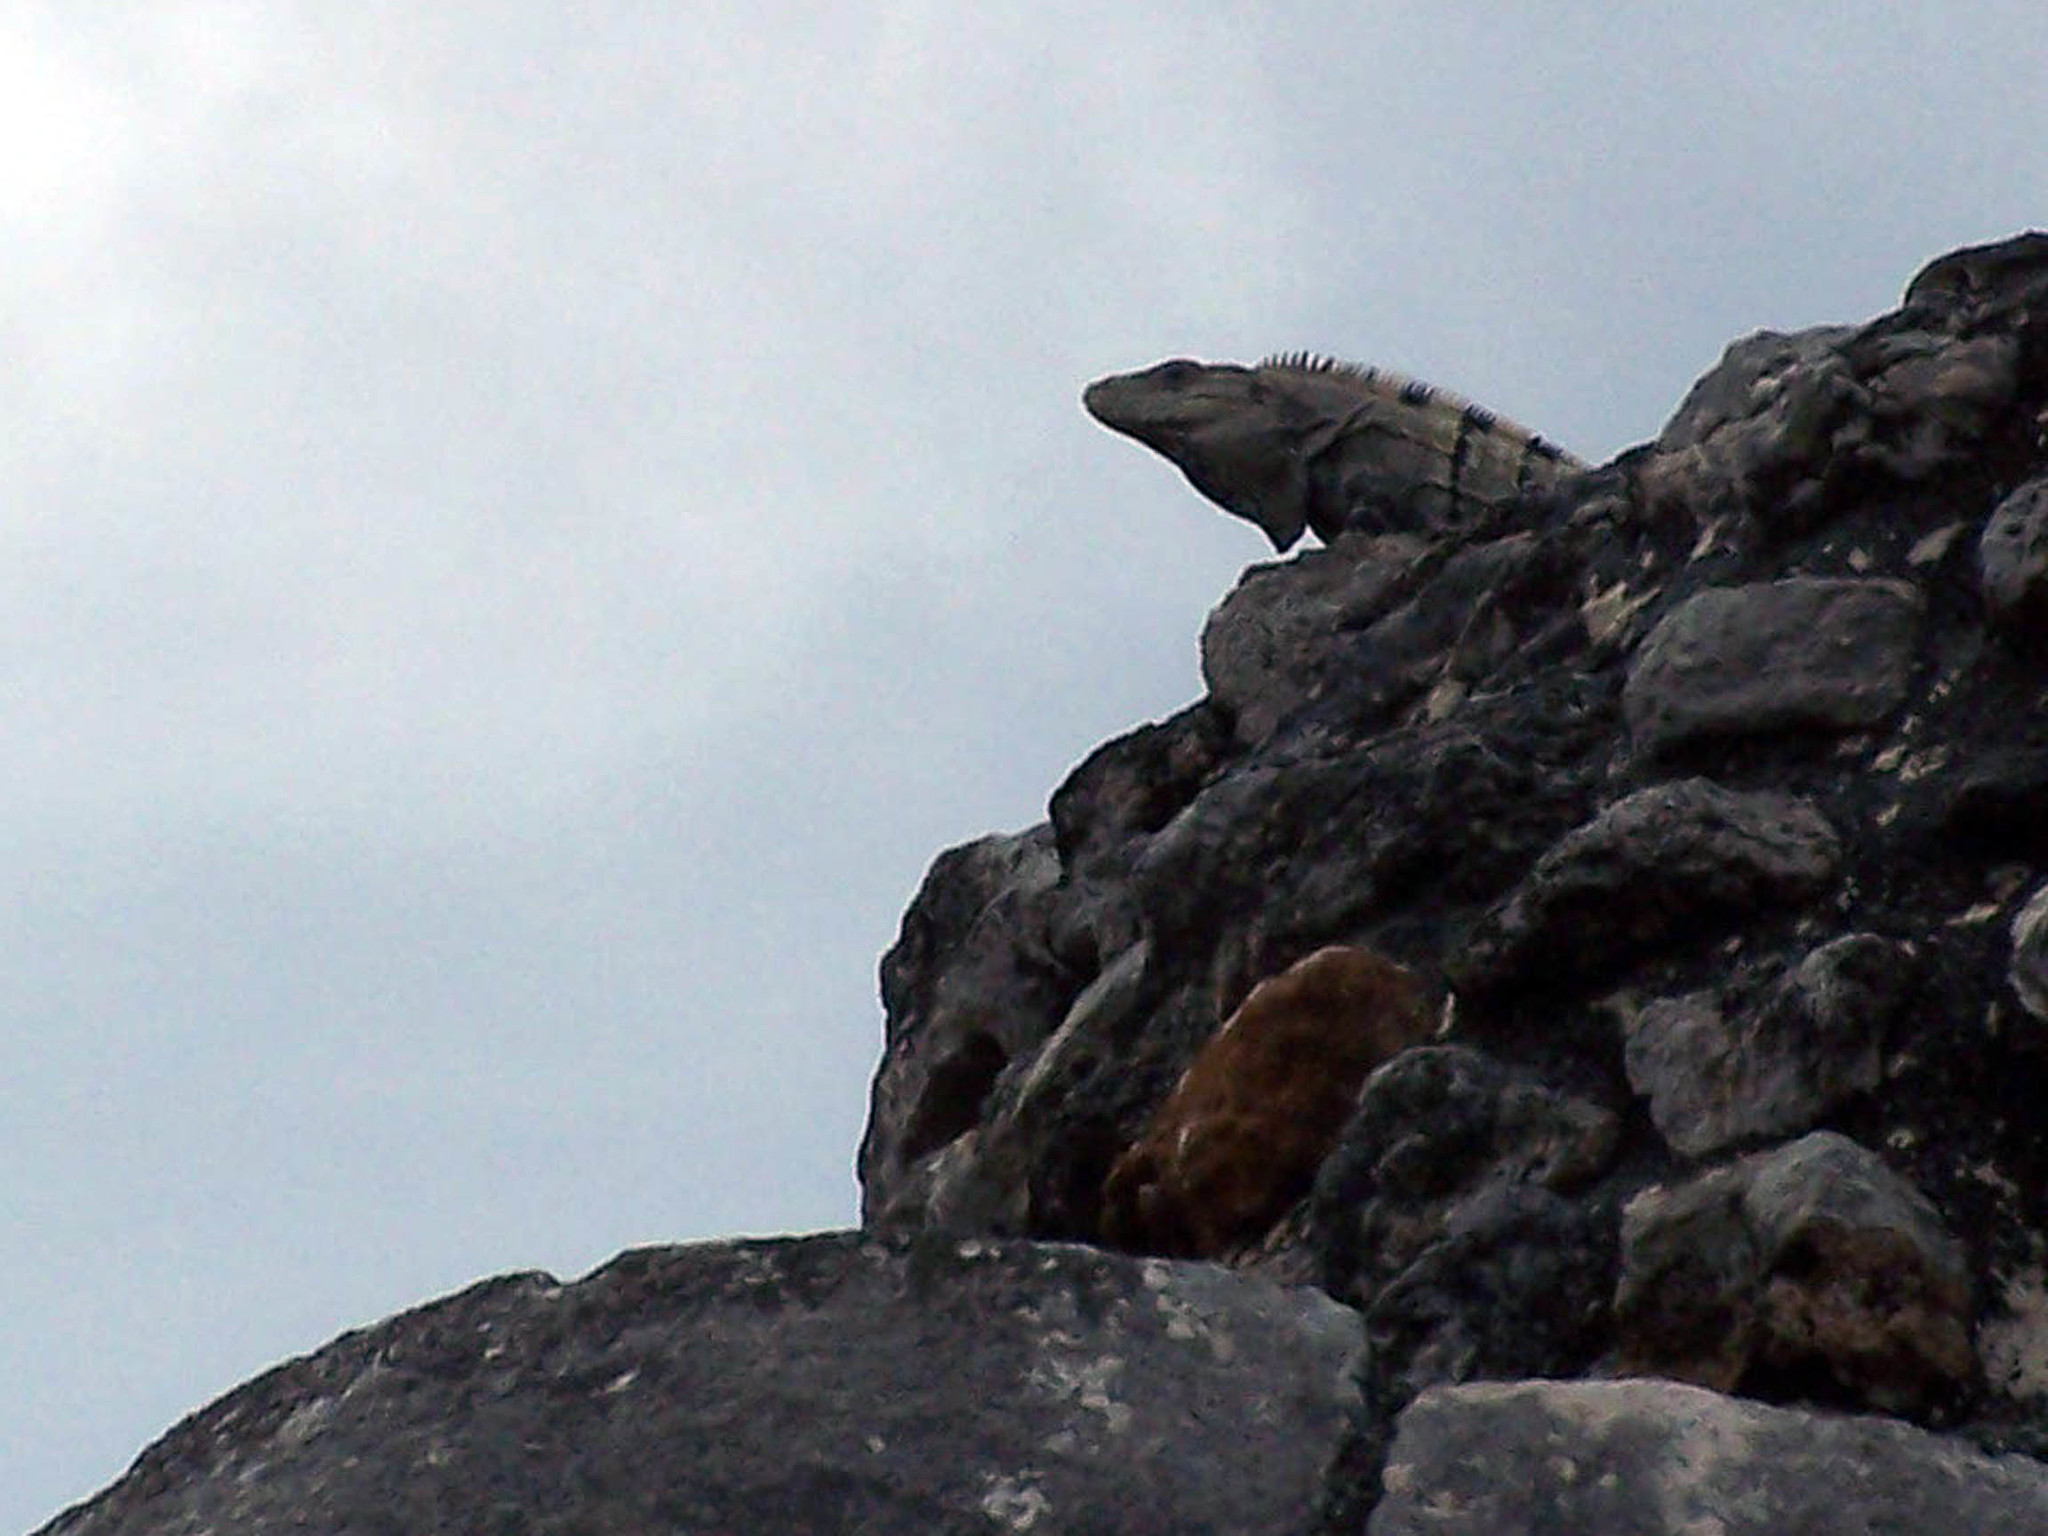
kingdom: Animalia
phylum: Chordata
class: Squamata
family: Iguanidae
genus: Ctenosaura
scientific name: Ctenosaura similis
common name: Black spiny-tailed iguana
